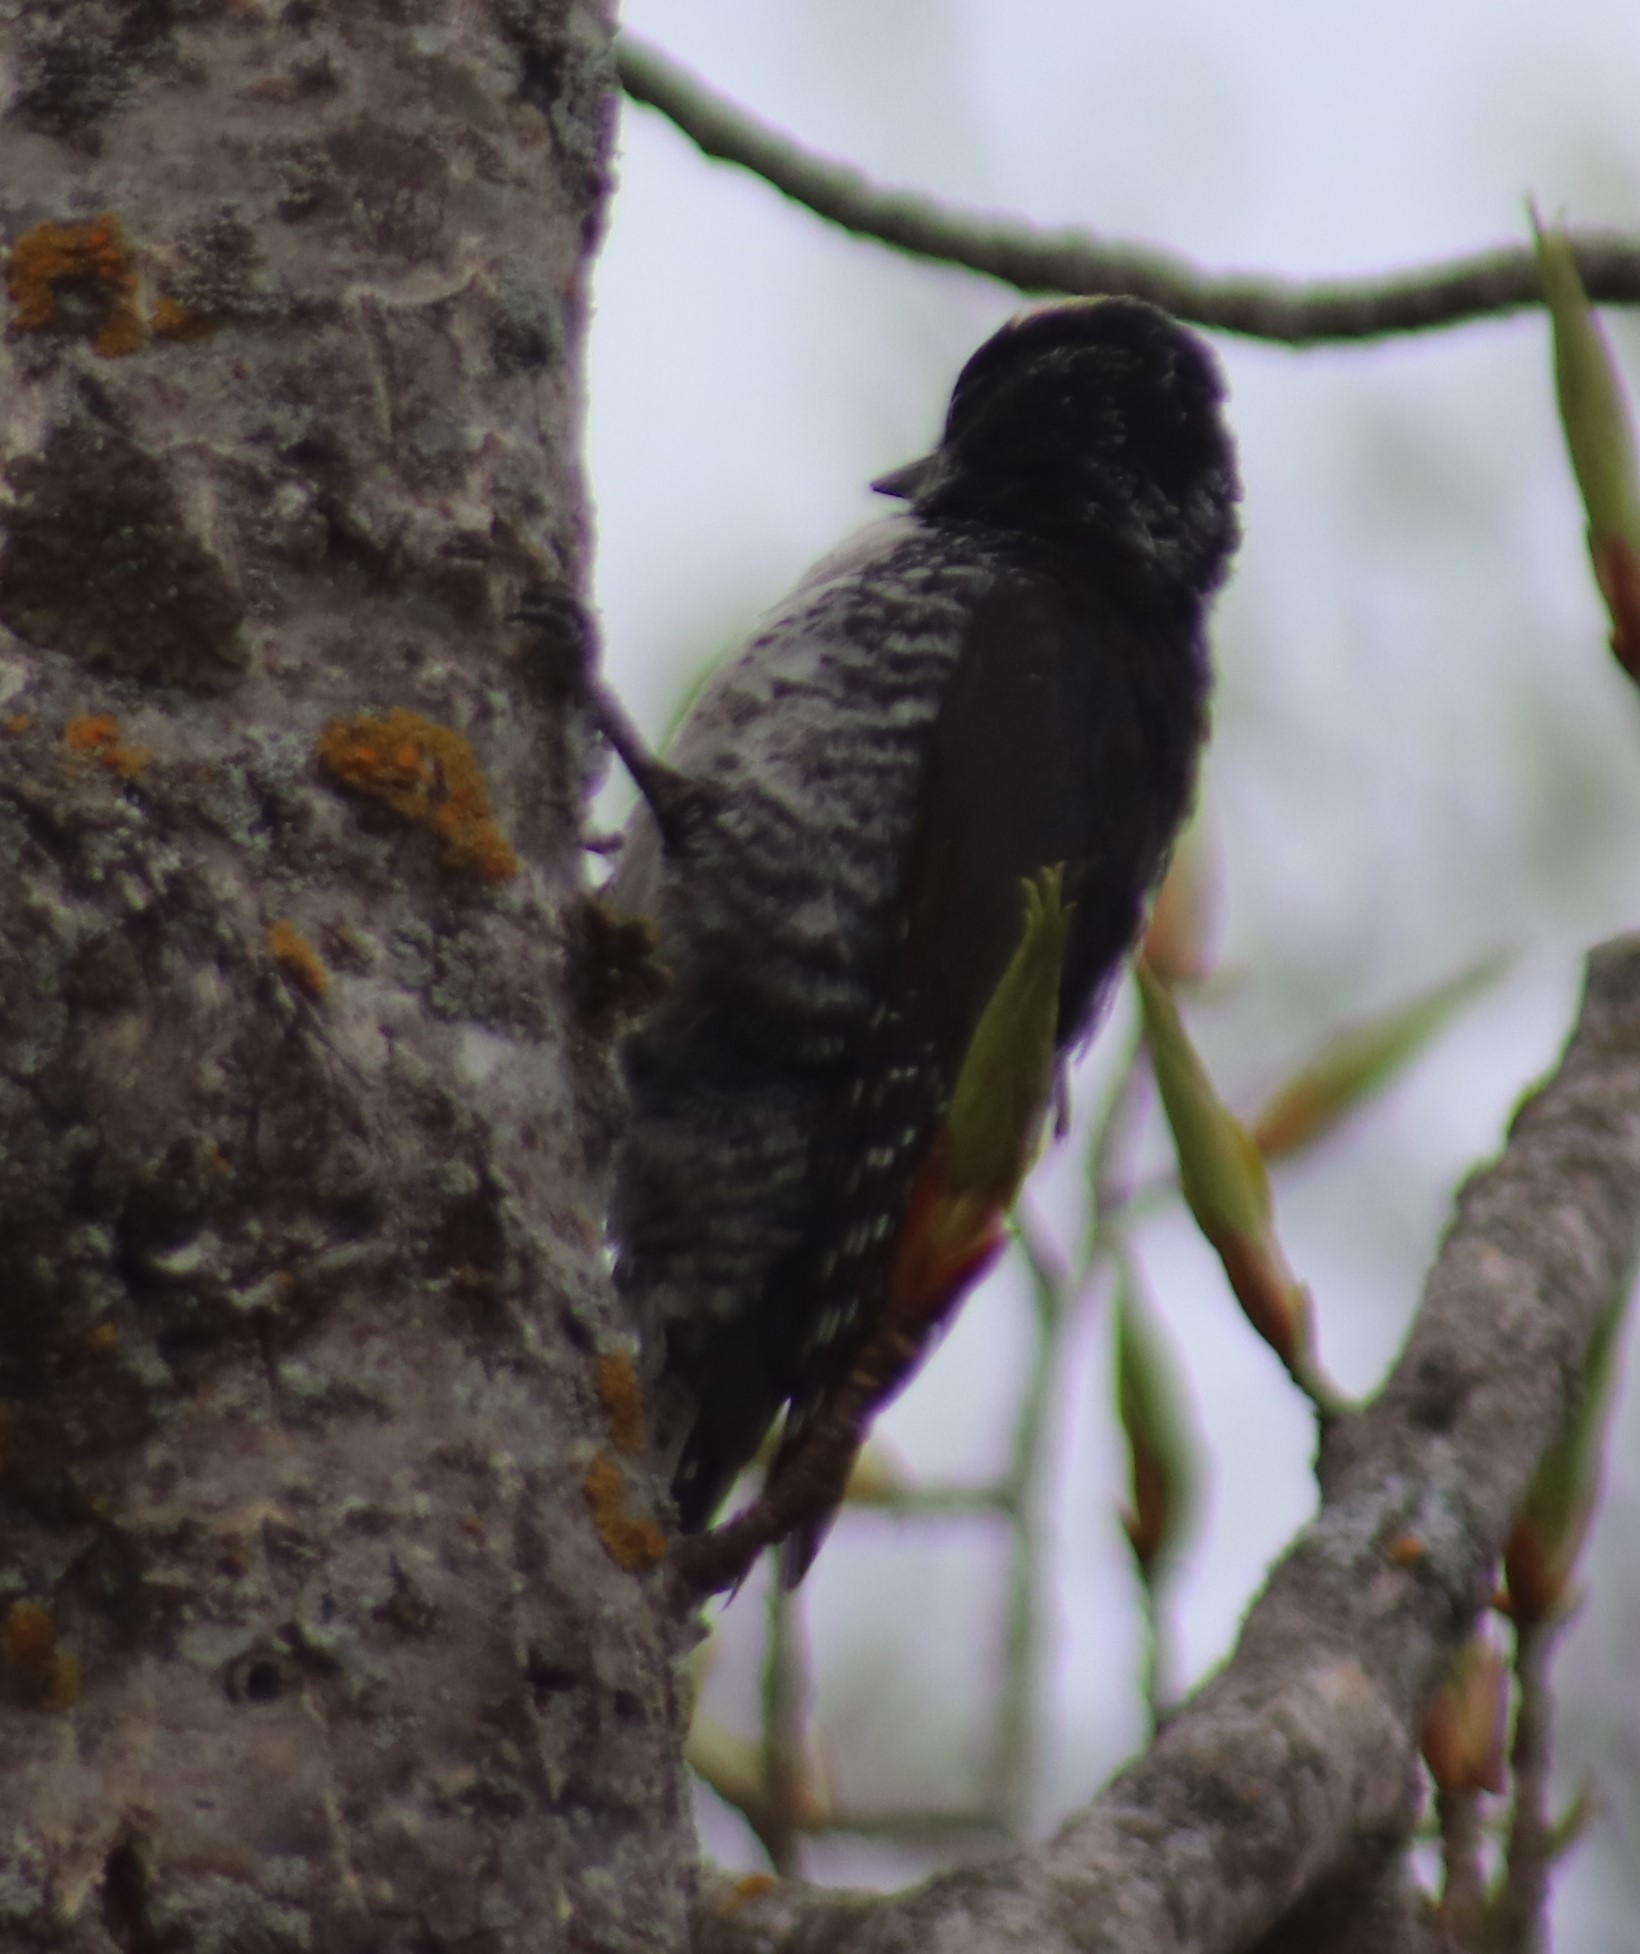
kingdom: Animalia
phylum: Chordata
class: Aves
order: Piciformes
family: Picidae
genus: Picoides
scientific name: Picoides arcticus
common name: Black-backed woodpecker
